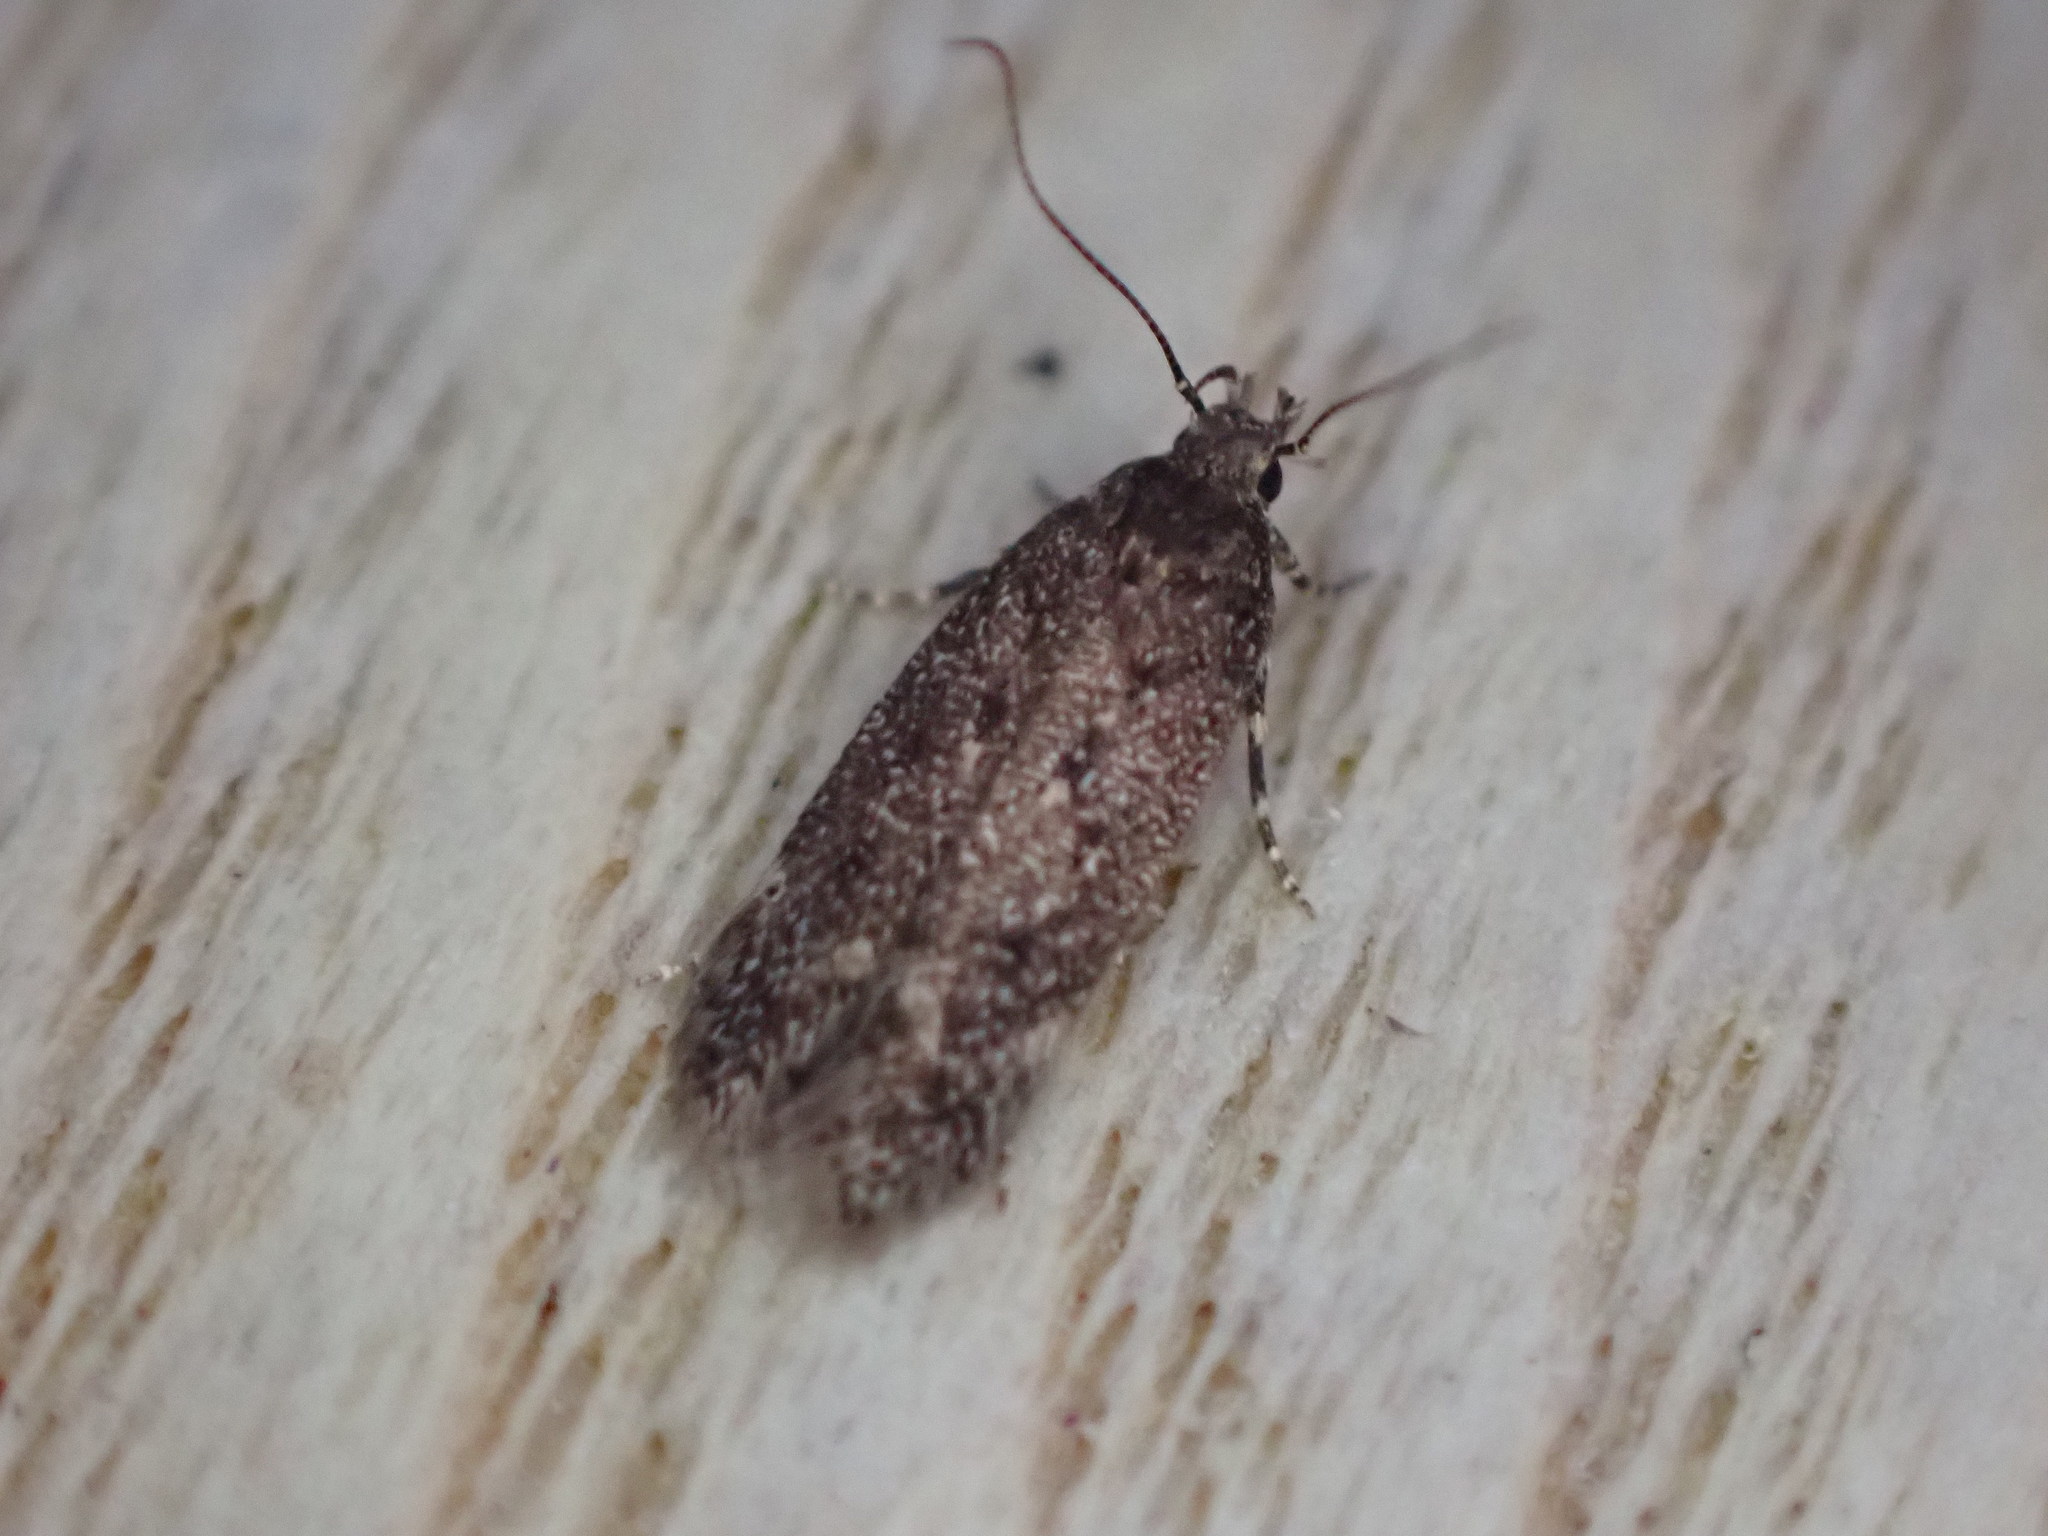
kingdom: Animalia
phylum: Arthropoda
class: Insecta
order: Lepidoptera
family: Gelechiidae
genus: Bryotropha
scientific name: Bryotropha affinis
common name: Dark groundling
